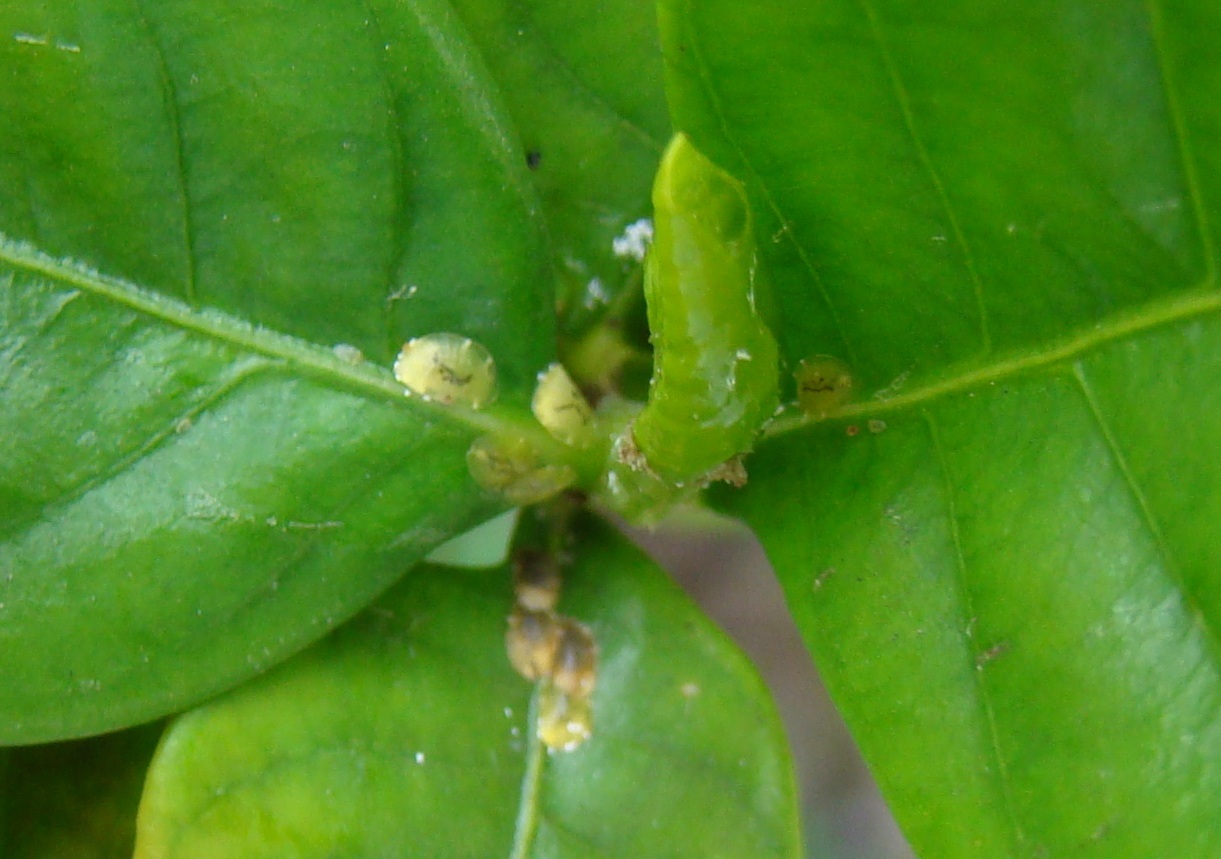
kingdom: Animalia
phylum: Arthropoda
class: Insecta
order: Hemiptera
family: Coccidae
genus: Coccus
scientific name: Coccus viridis
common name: Green scale
